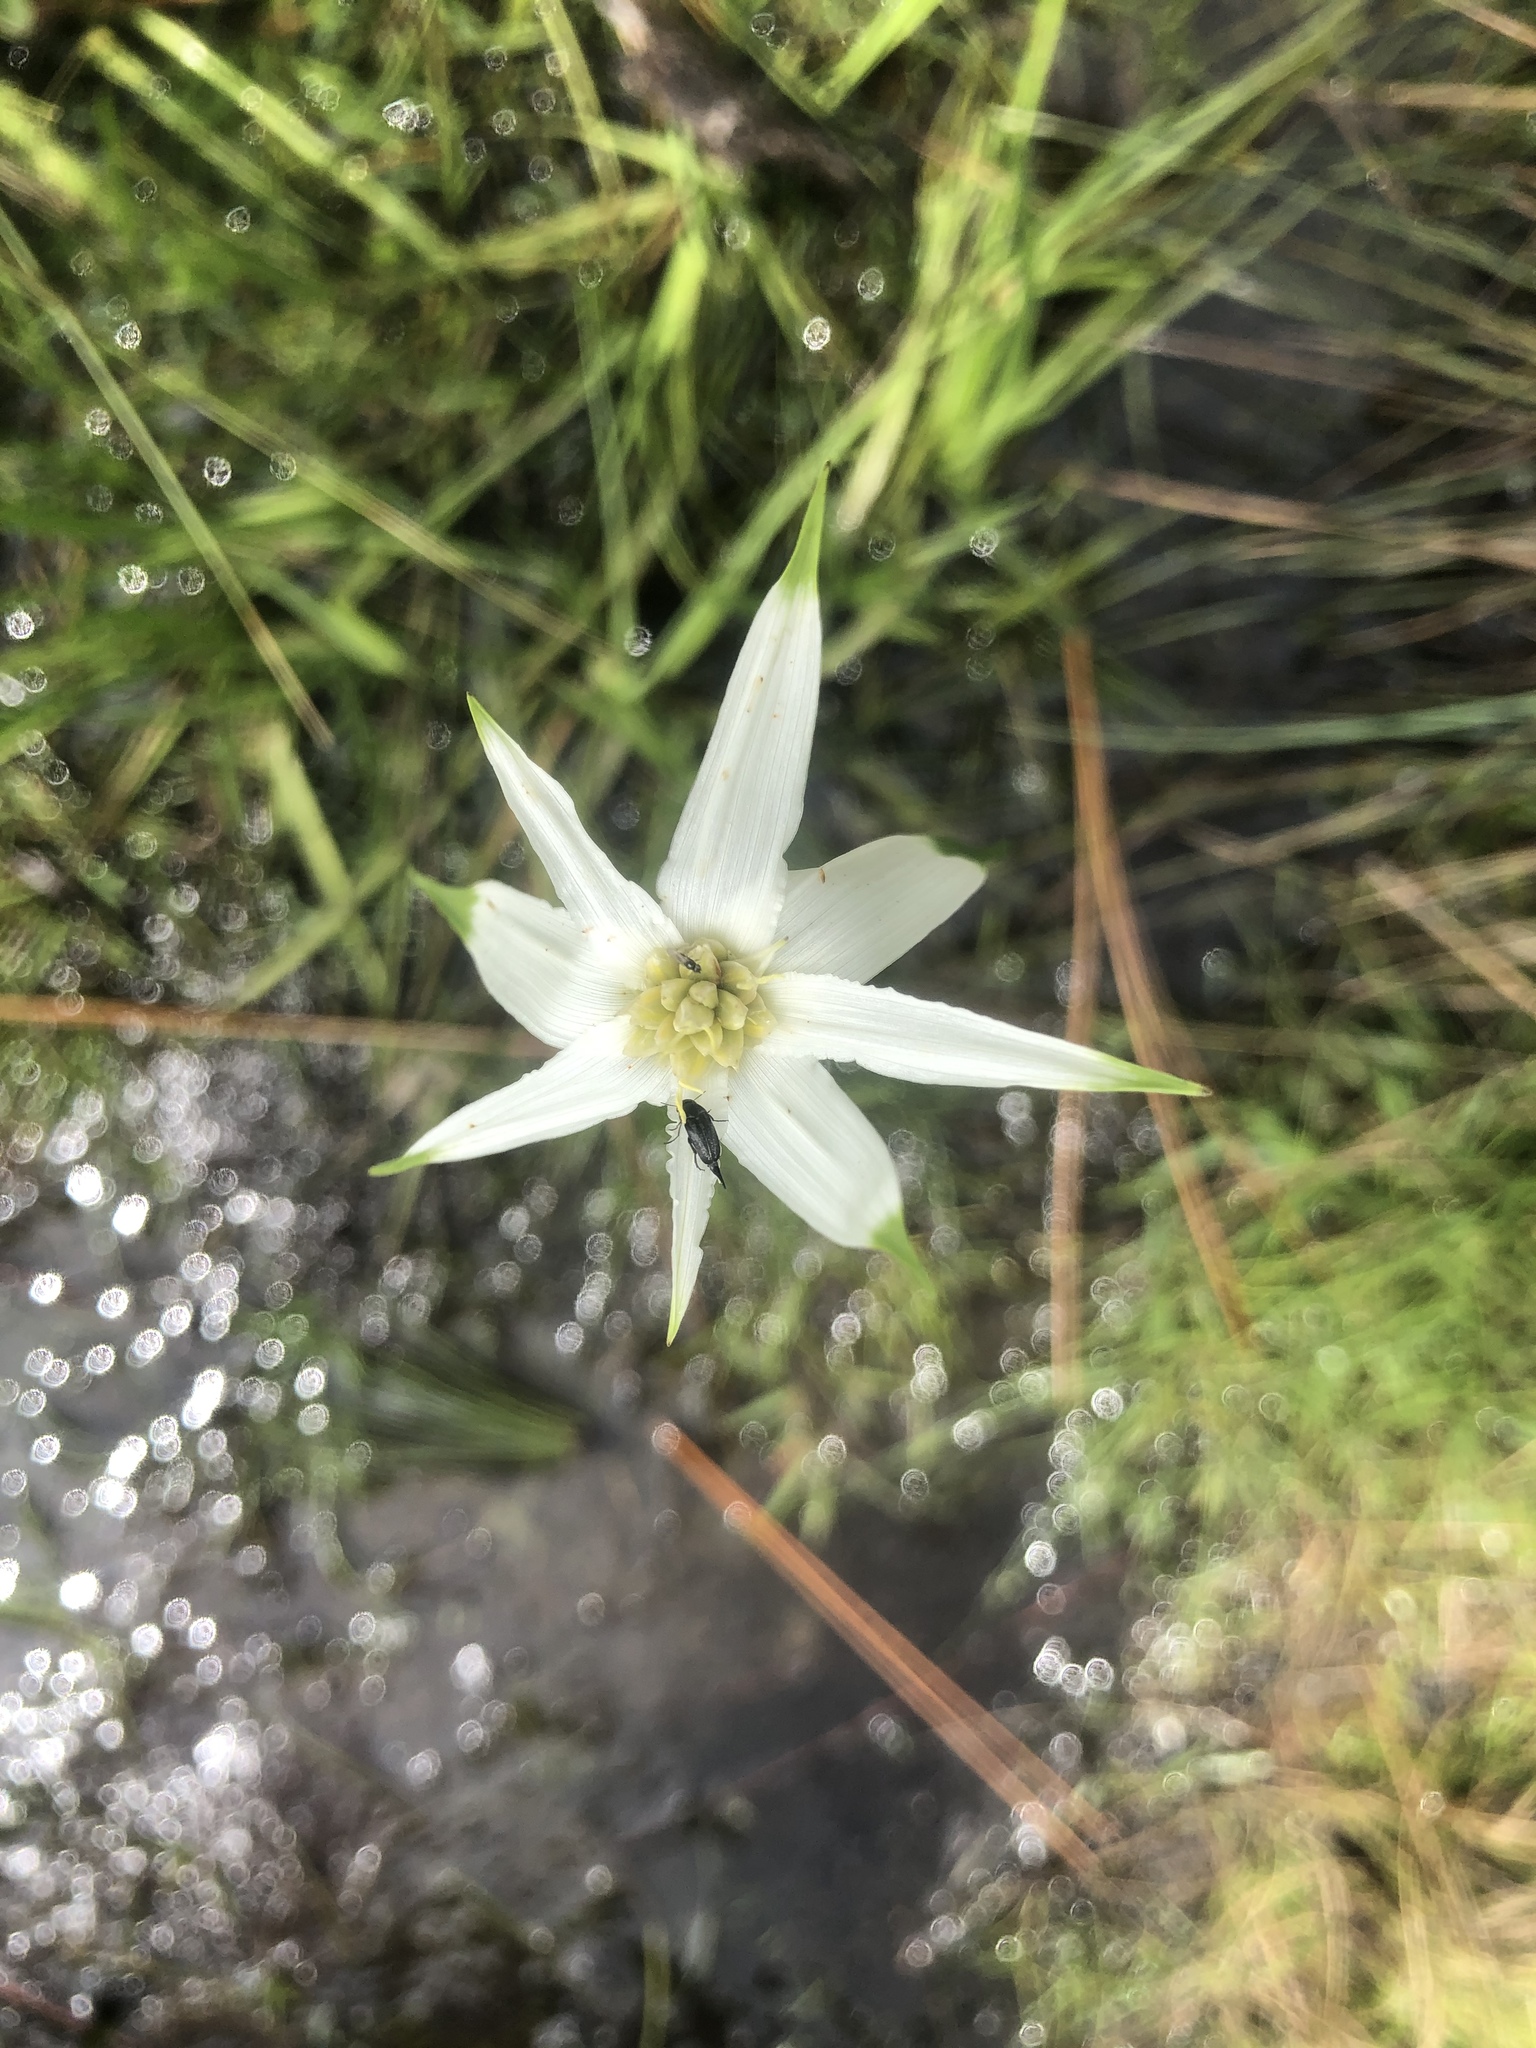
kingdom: Plantae
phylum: Tracheophyta
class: Liliopsida
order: Poales
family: Cyperaceae
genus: Rhynchospora
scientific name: Rhynchospora latifolia
